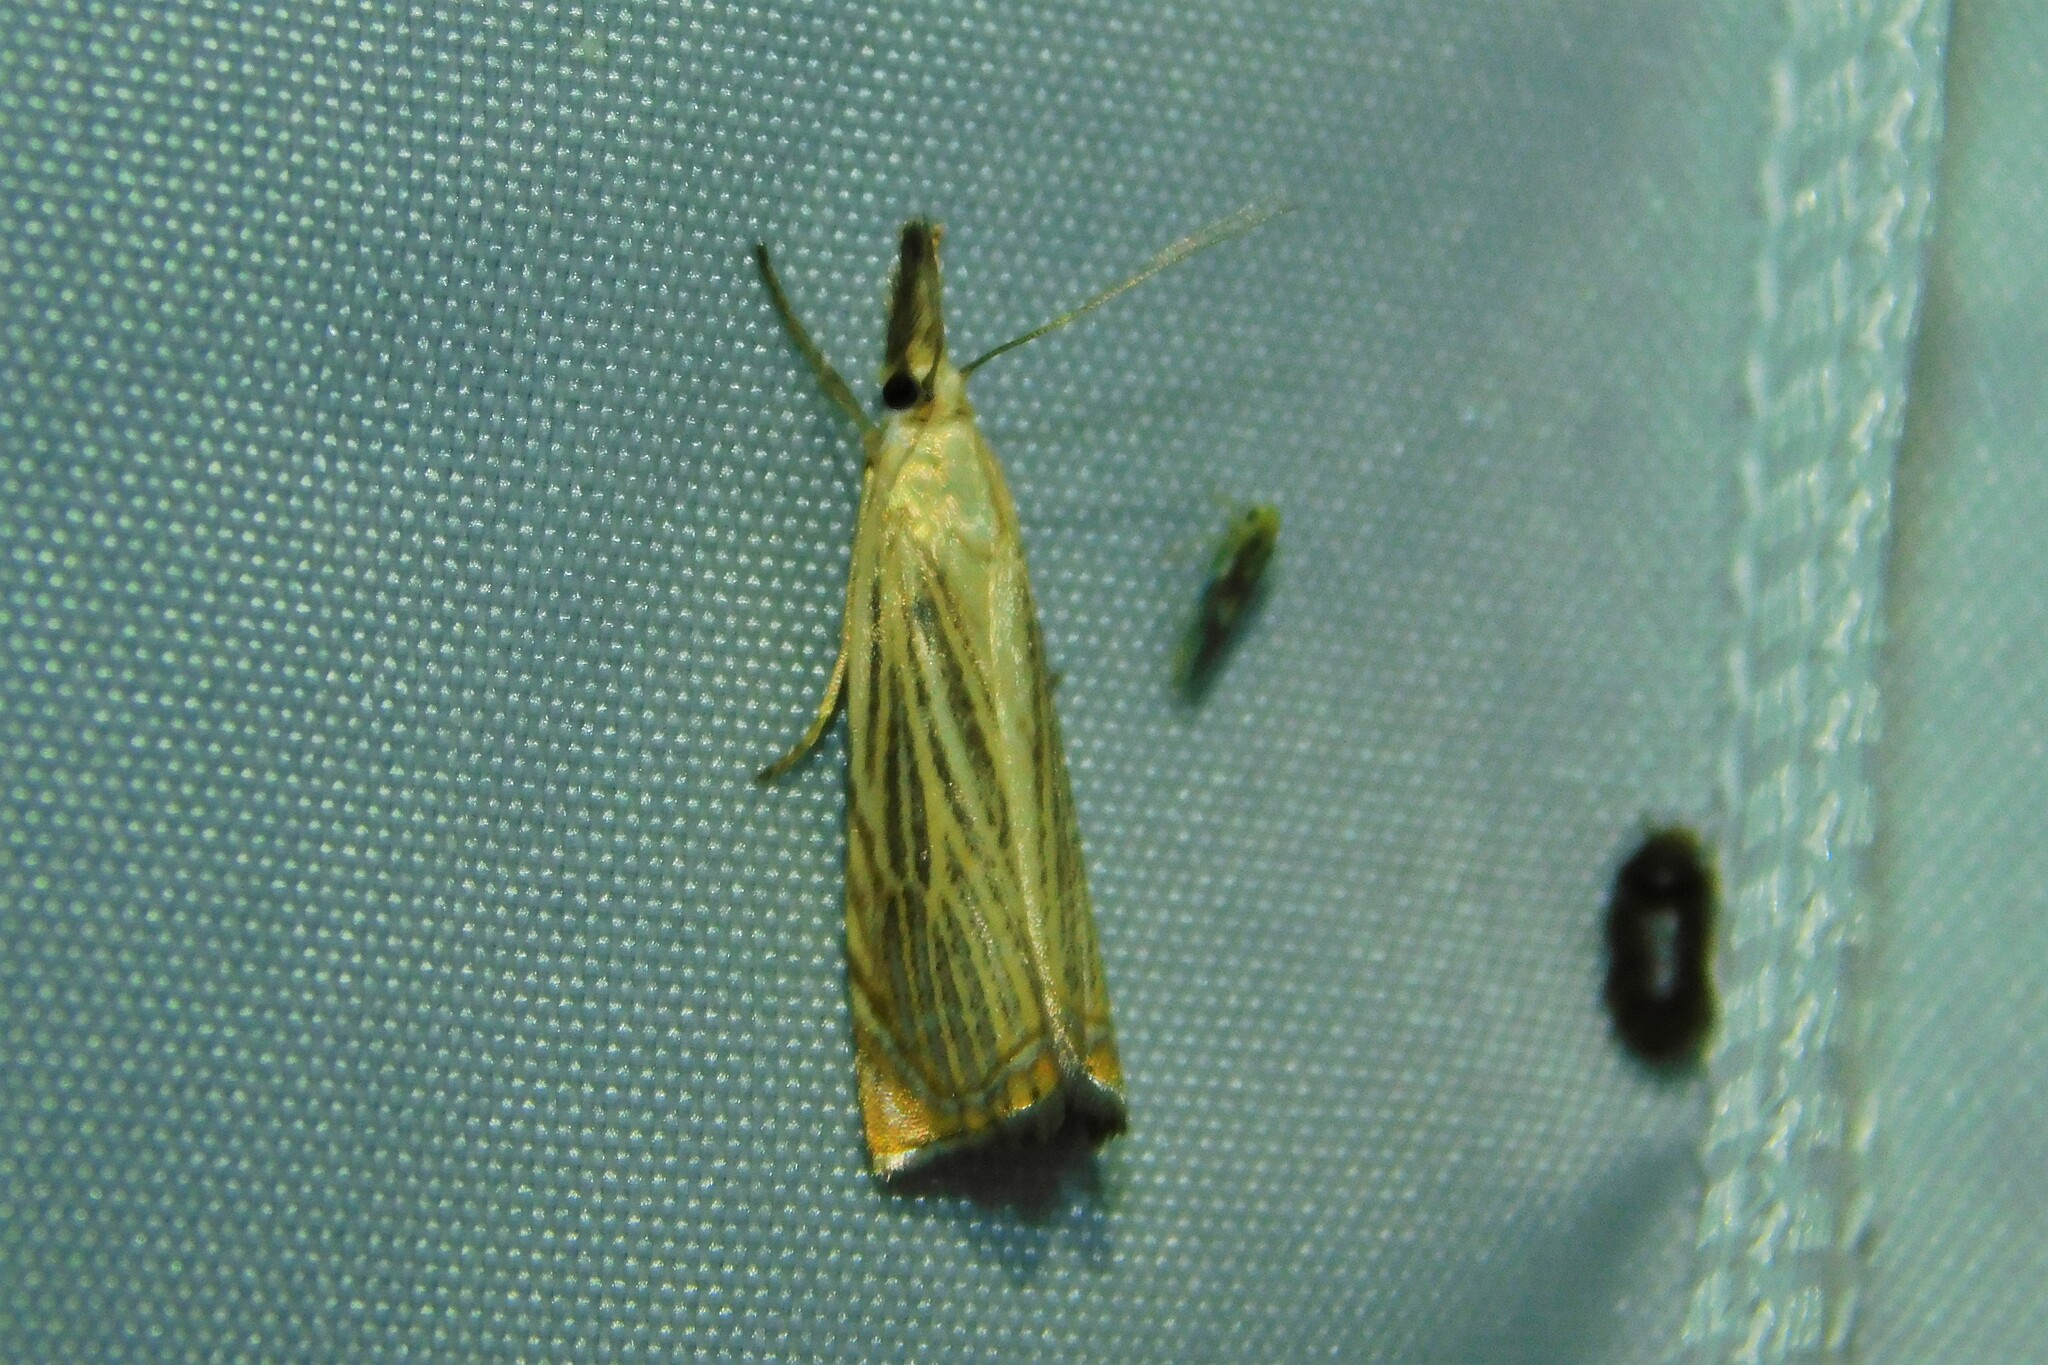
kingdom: Animalia
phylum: Arthropoda
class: Insecta
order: Lepidoptera
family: Crambidae
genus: Chrysoteuchia
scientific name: Chrysoteuchia culmella
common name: Garden grass-veneer
